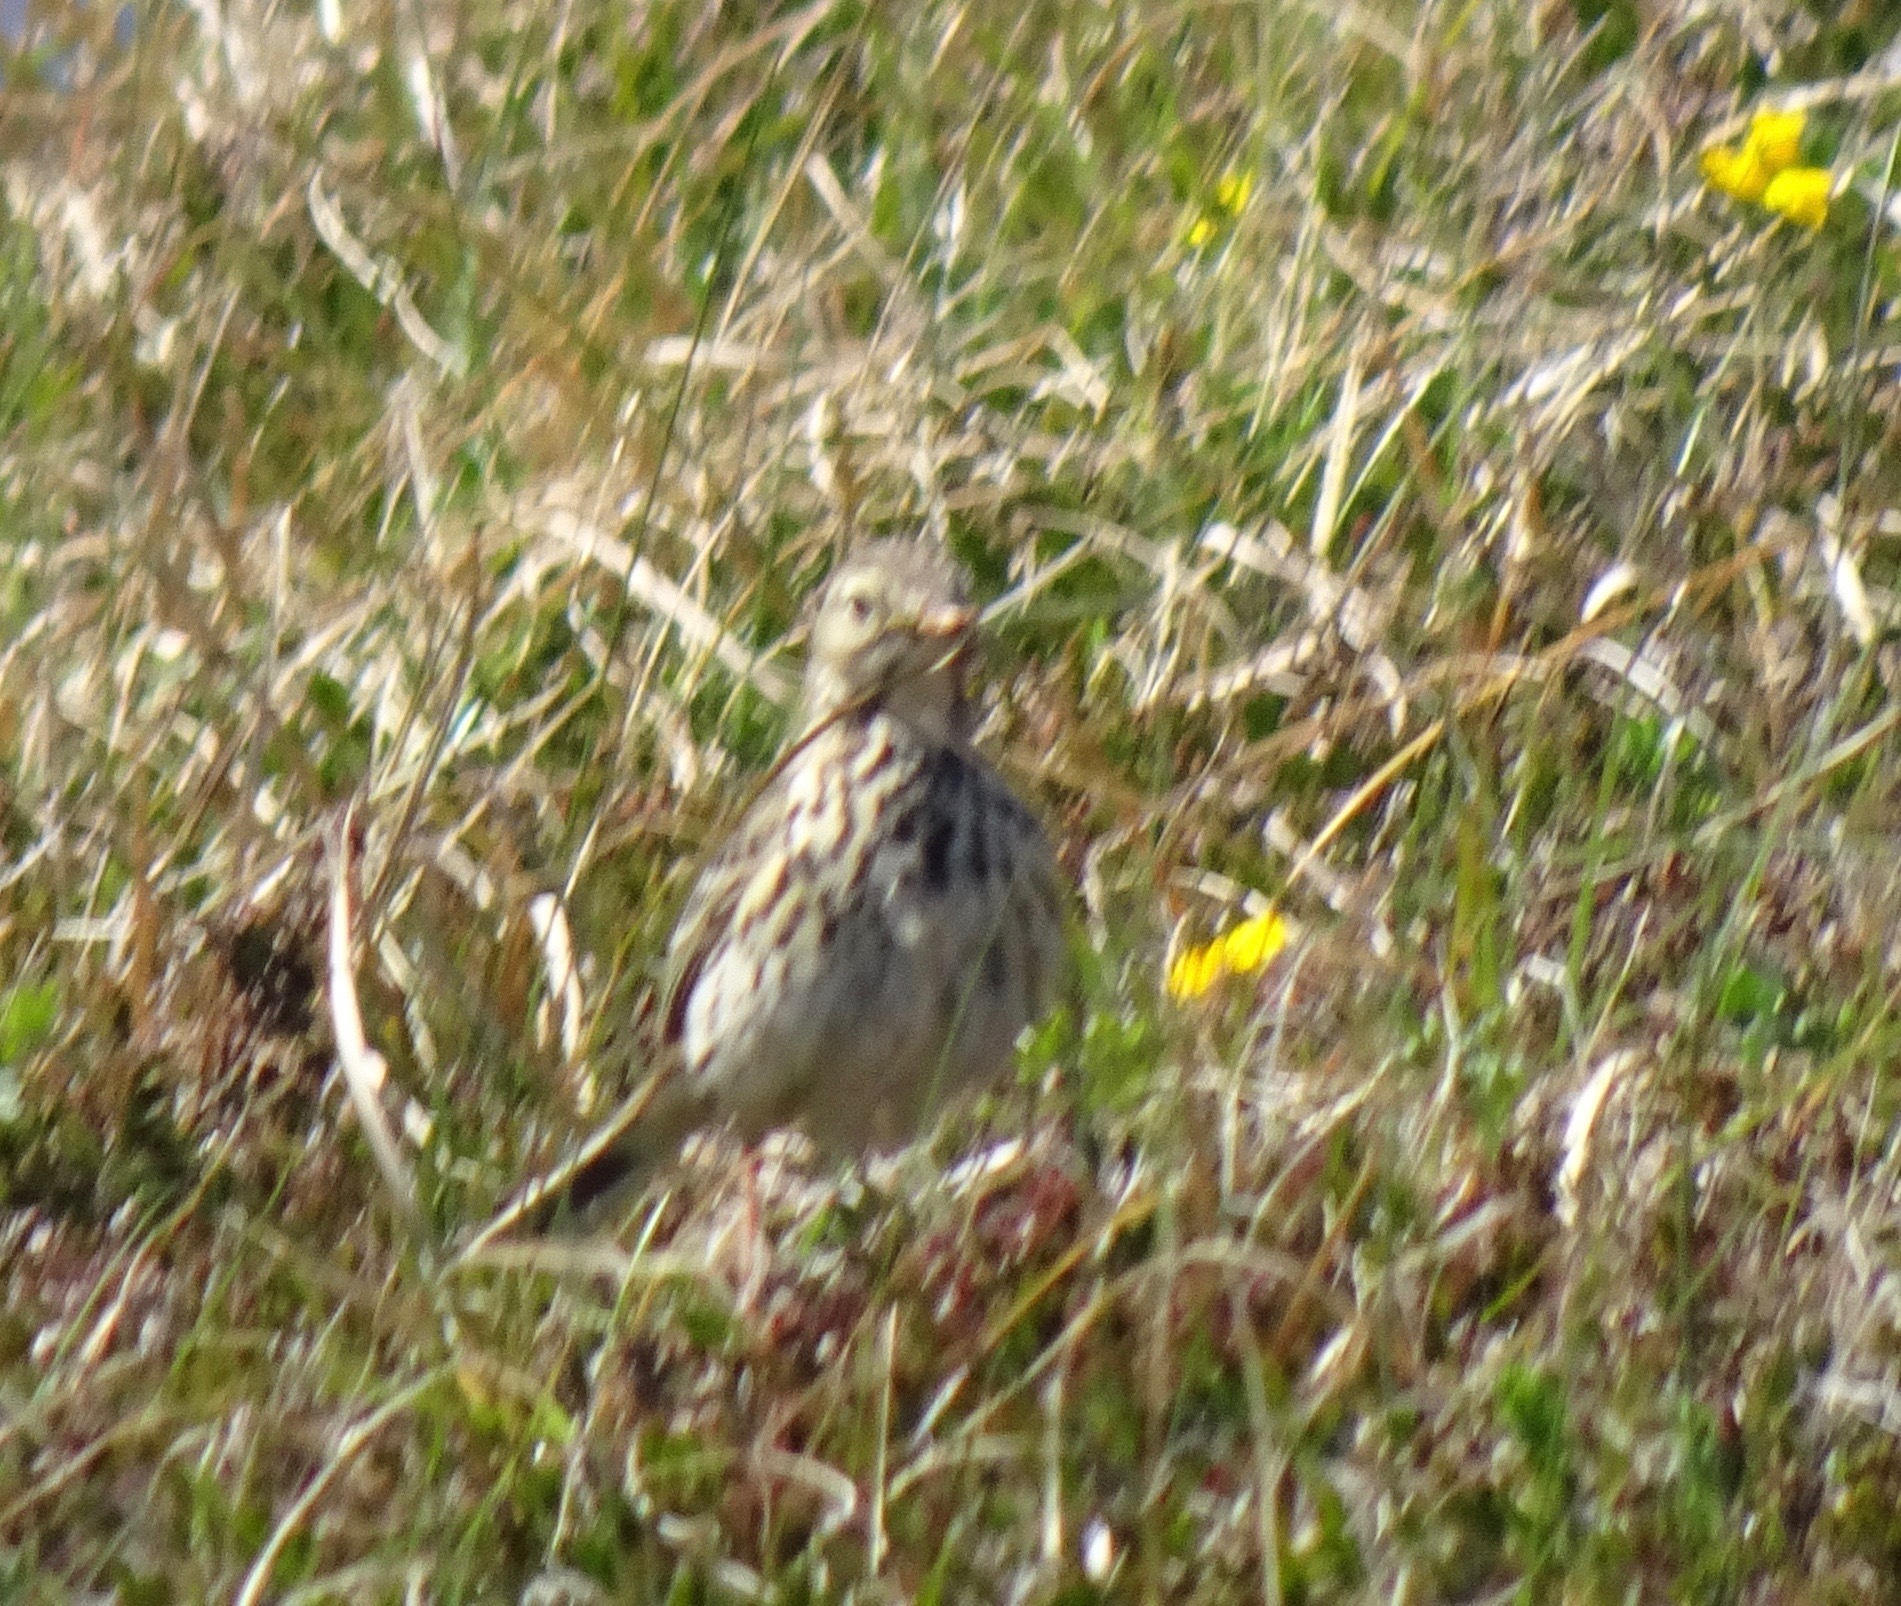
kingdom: Animalia
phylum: Chordata
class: Aves
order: Passeriformes
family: Motacillidae
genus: Anthus
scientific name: Anthus pratensis
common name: Meadow pipit
